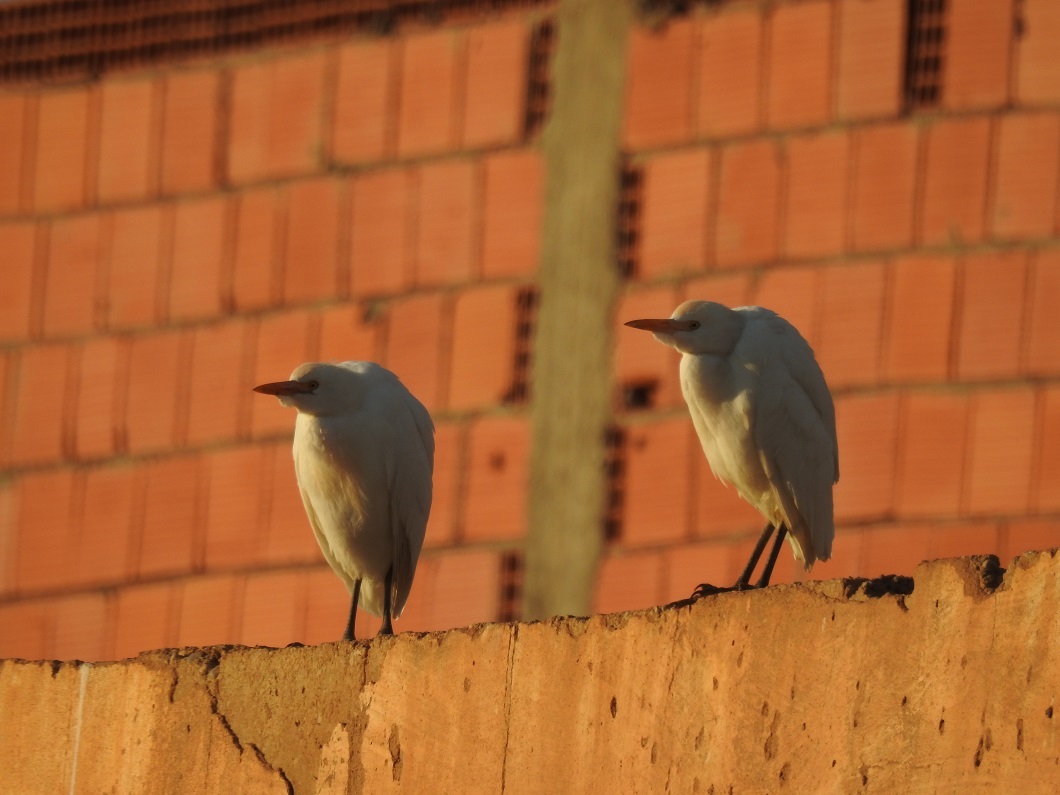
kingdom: Animalia
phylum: Chordata
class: Aves
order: Pelecaniformes
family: Ardeidae
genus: Bubulcus
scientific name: Bubulcus ibis
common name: Cattle egret
